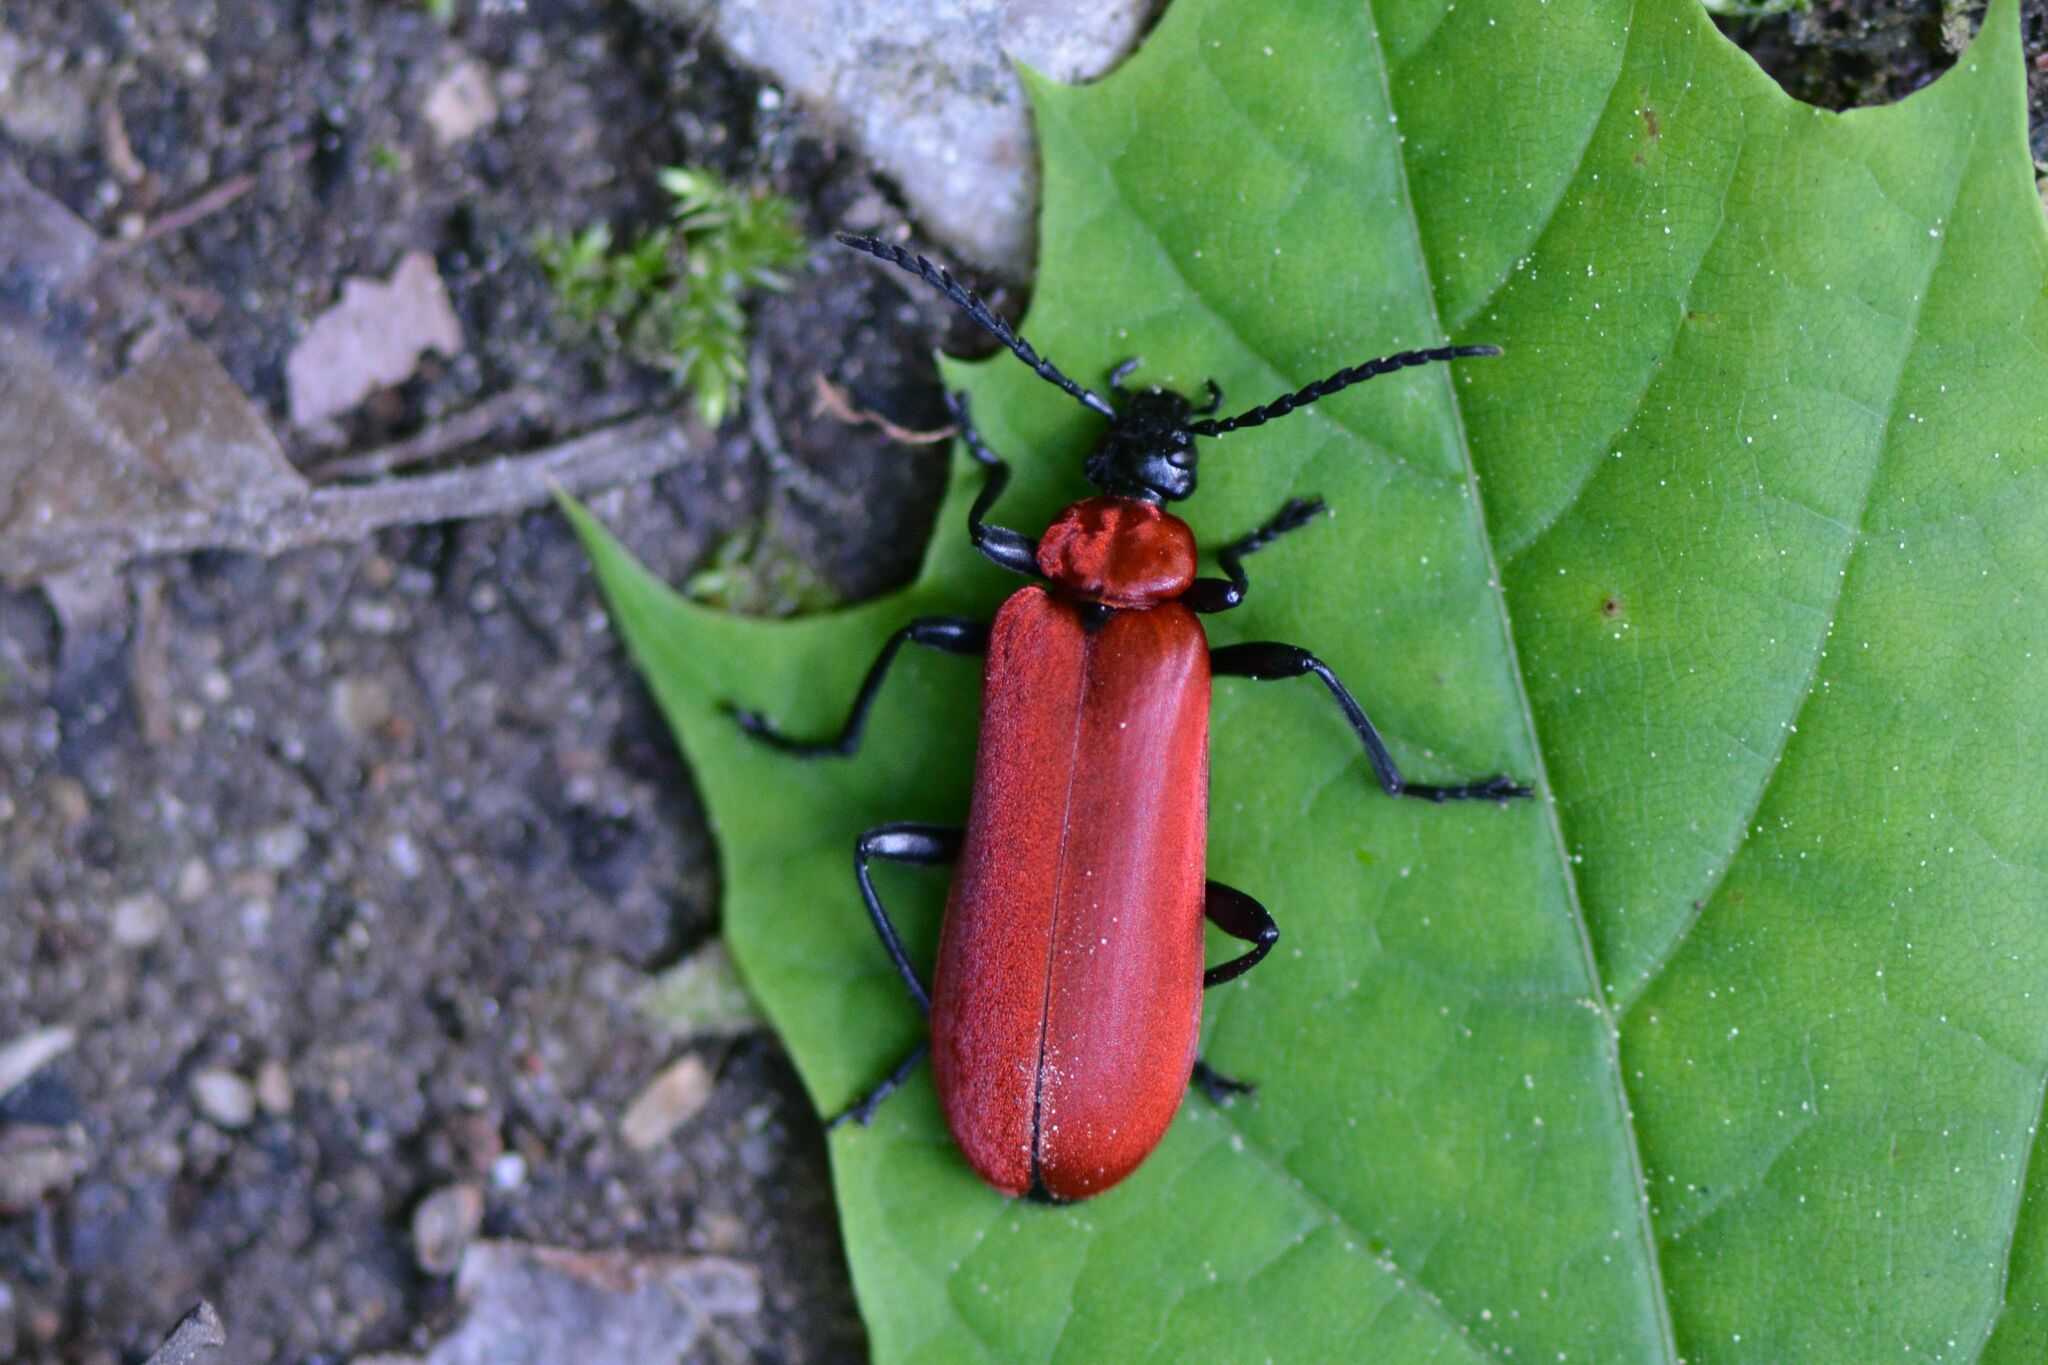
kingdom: Animalia
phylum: Arthropoda
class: Insecta
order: Coleoptera
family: Pyrochroidae
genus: Pyrochroa
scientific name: Pyrochroa coccinea
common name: Black-headed cardinal beetle
